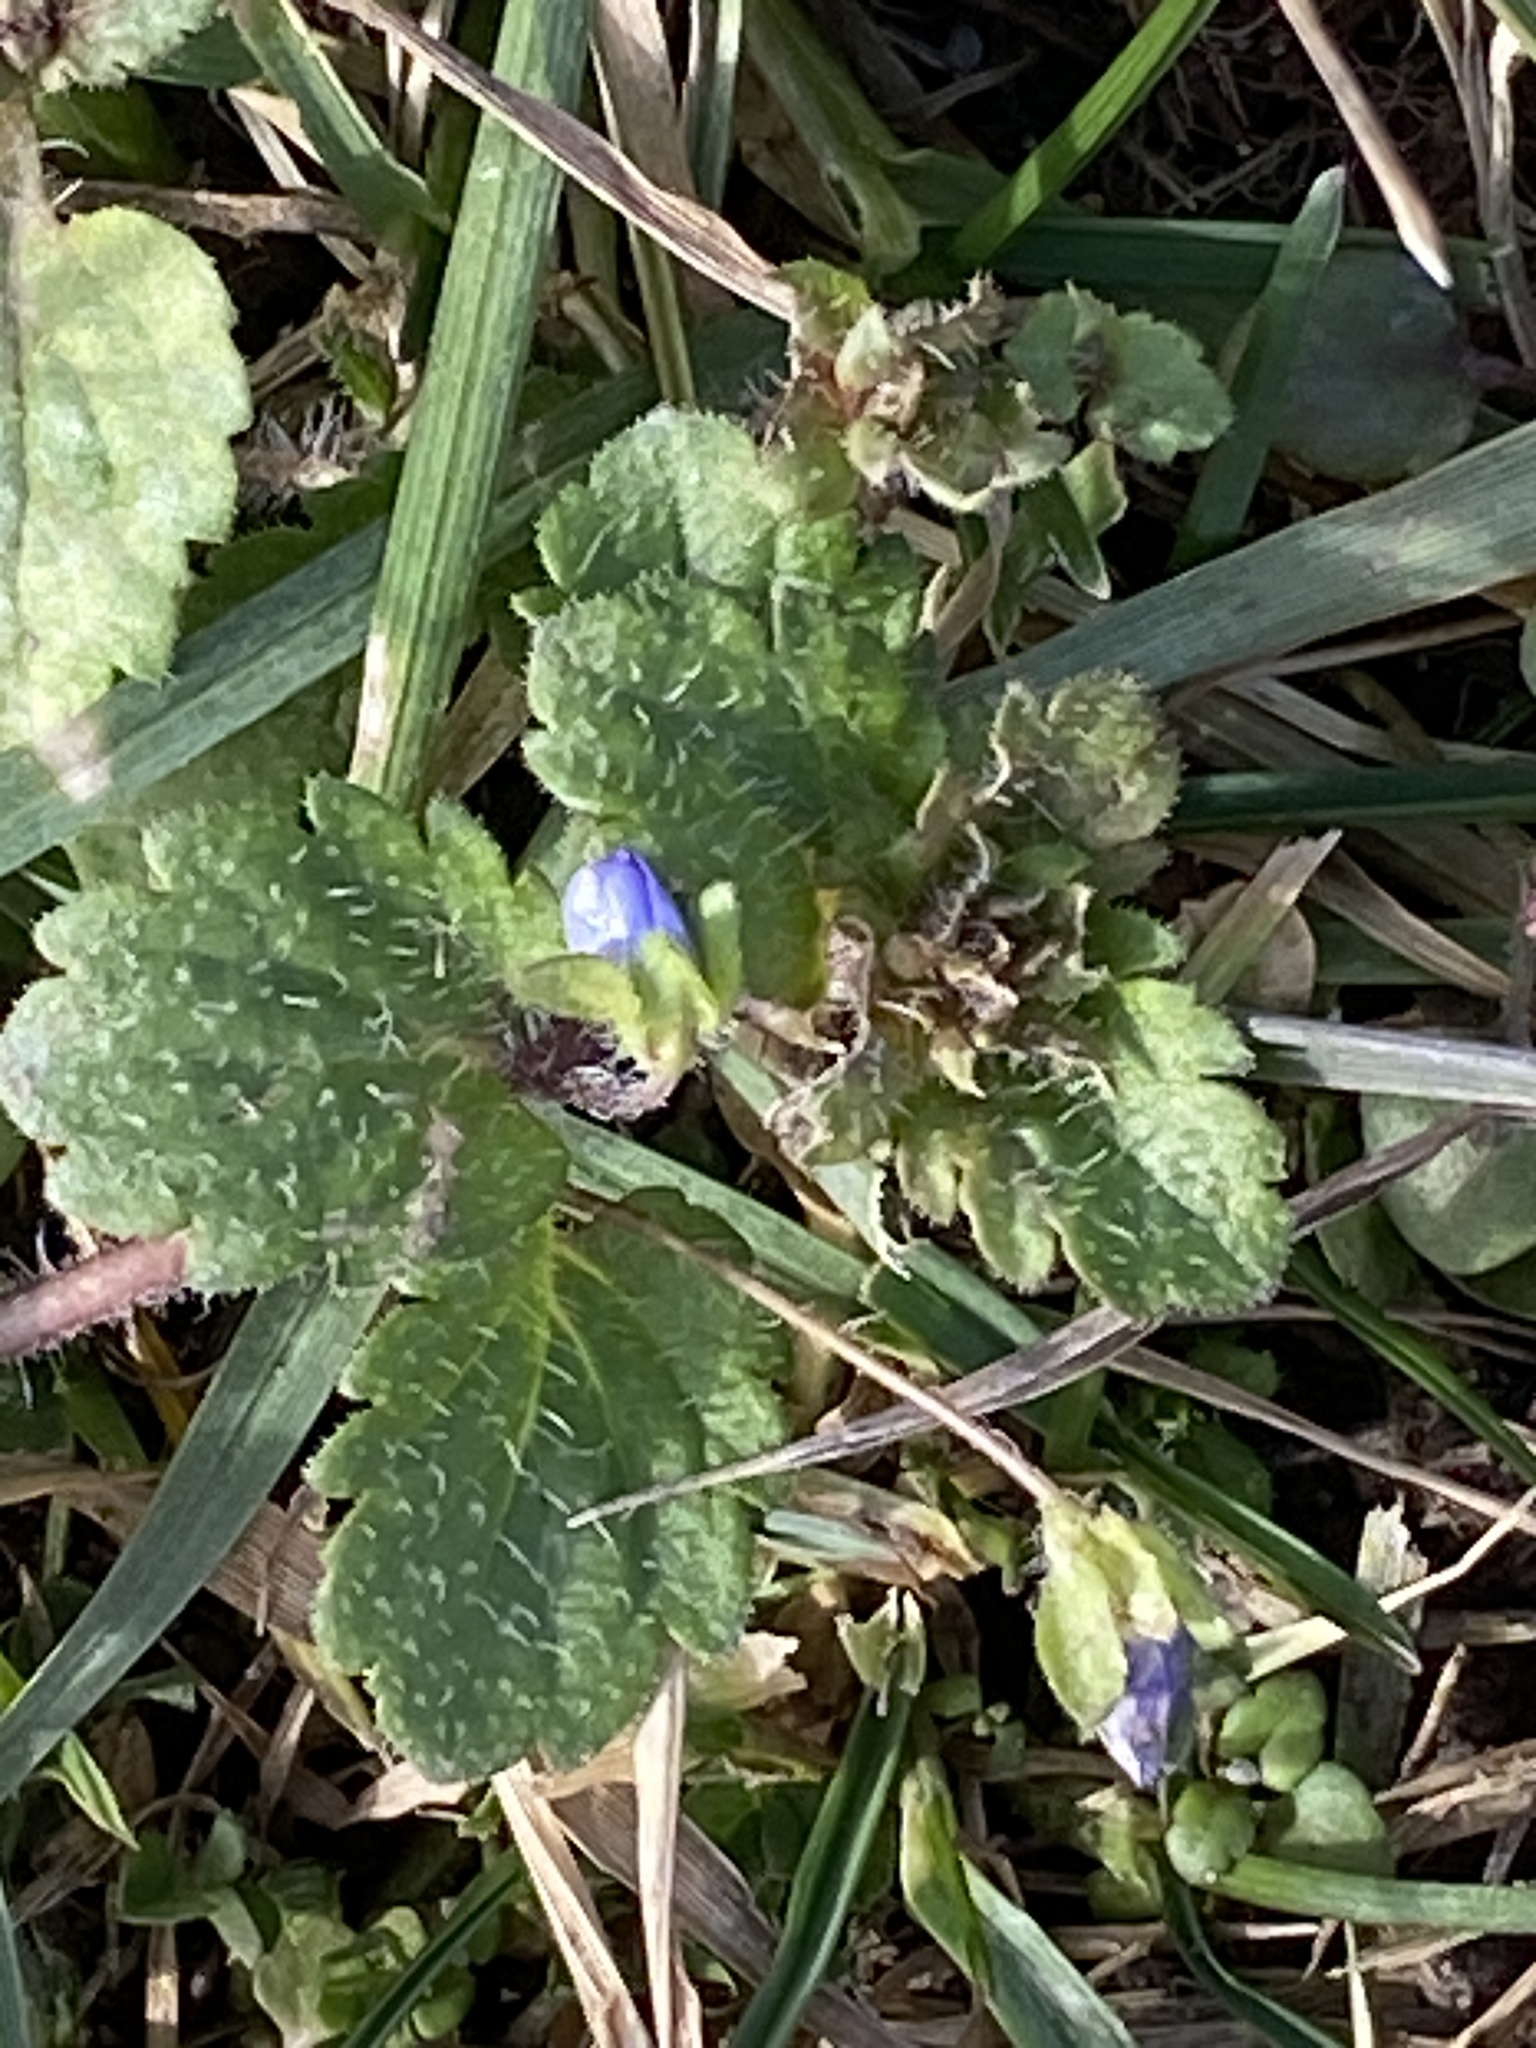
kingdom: Plantae
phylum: Tracheophyta
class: Magnoliopsida
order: Lamiales
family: Plantaginaceae
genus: Veronica
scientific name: Veronica persica
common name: Common field-speedwell
